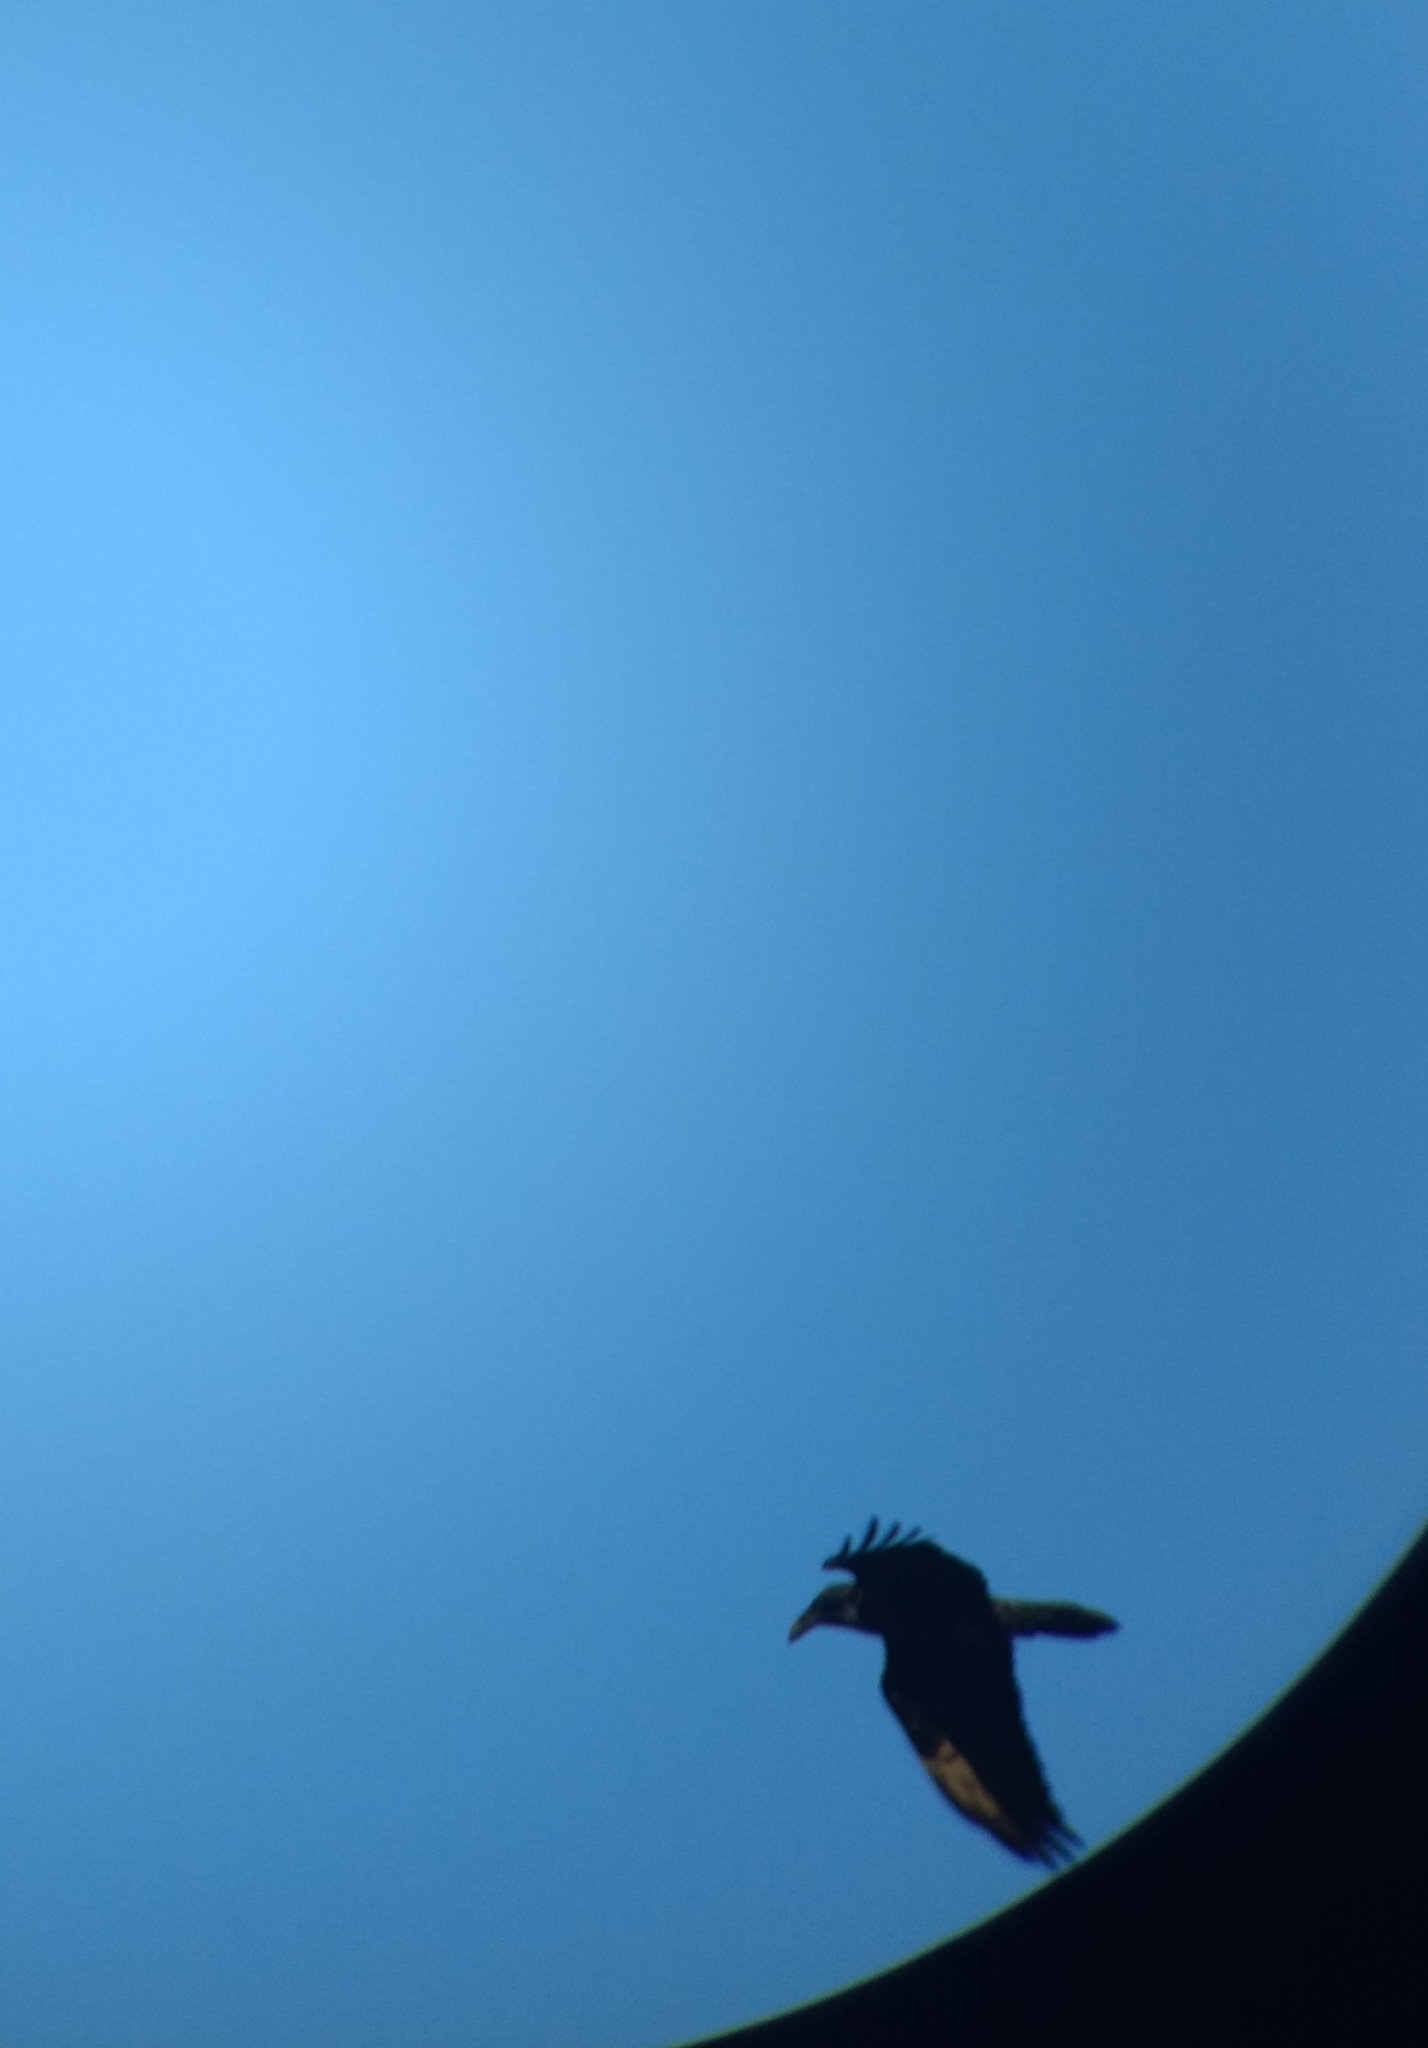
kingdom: Animalia
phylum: Chordata
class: Aves
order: Passeriformes
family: Corvidae
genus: Corvus
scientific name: Corvus corax
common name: Common raven
